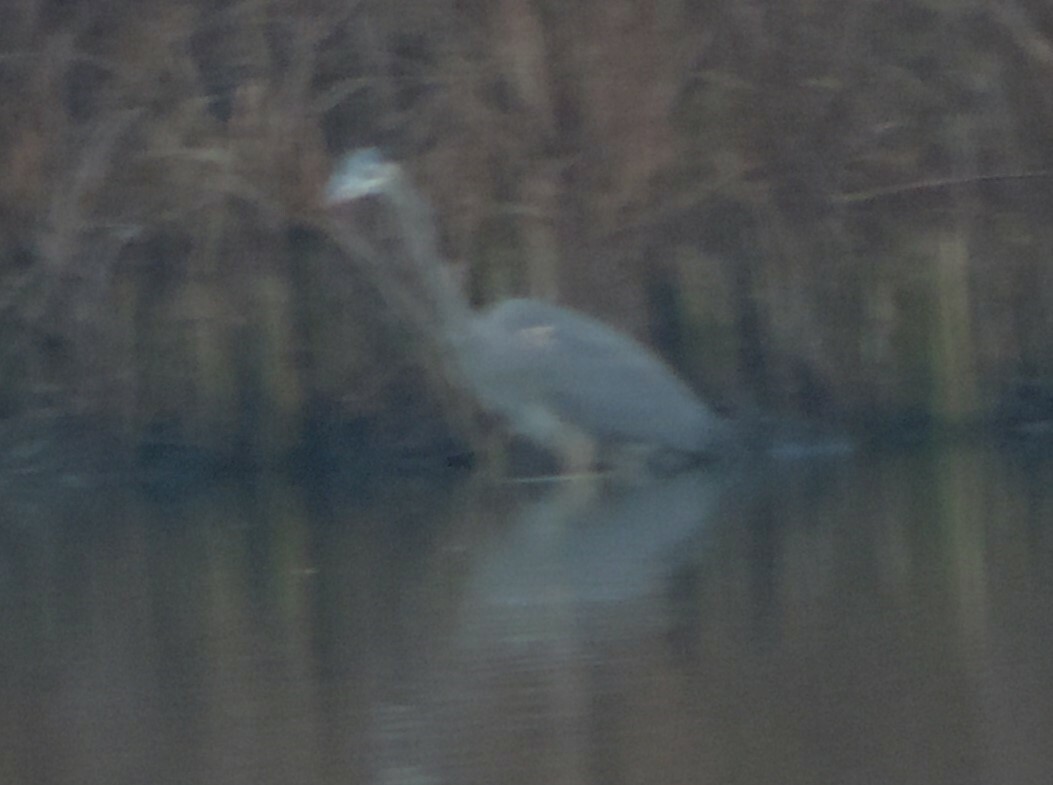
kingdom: Animalia
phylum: Chordata
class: Aves
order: Pelecaniformes
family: Ardeidae
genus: Ardea
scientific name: Ardea herodias
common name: Great blue heron
